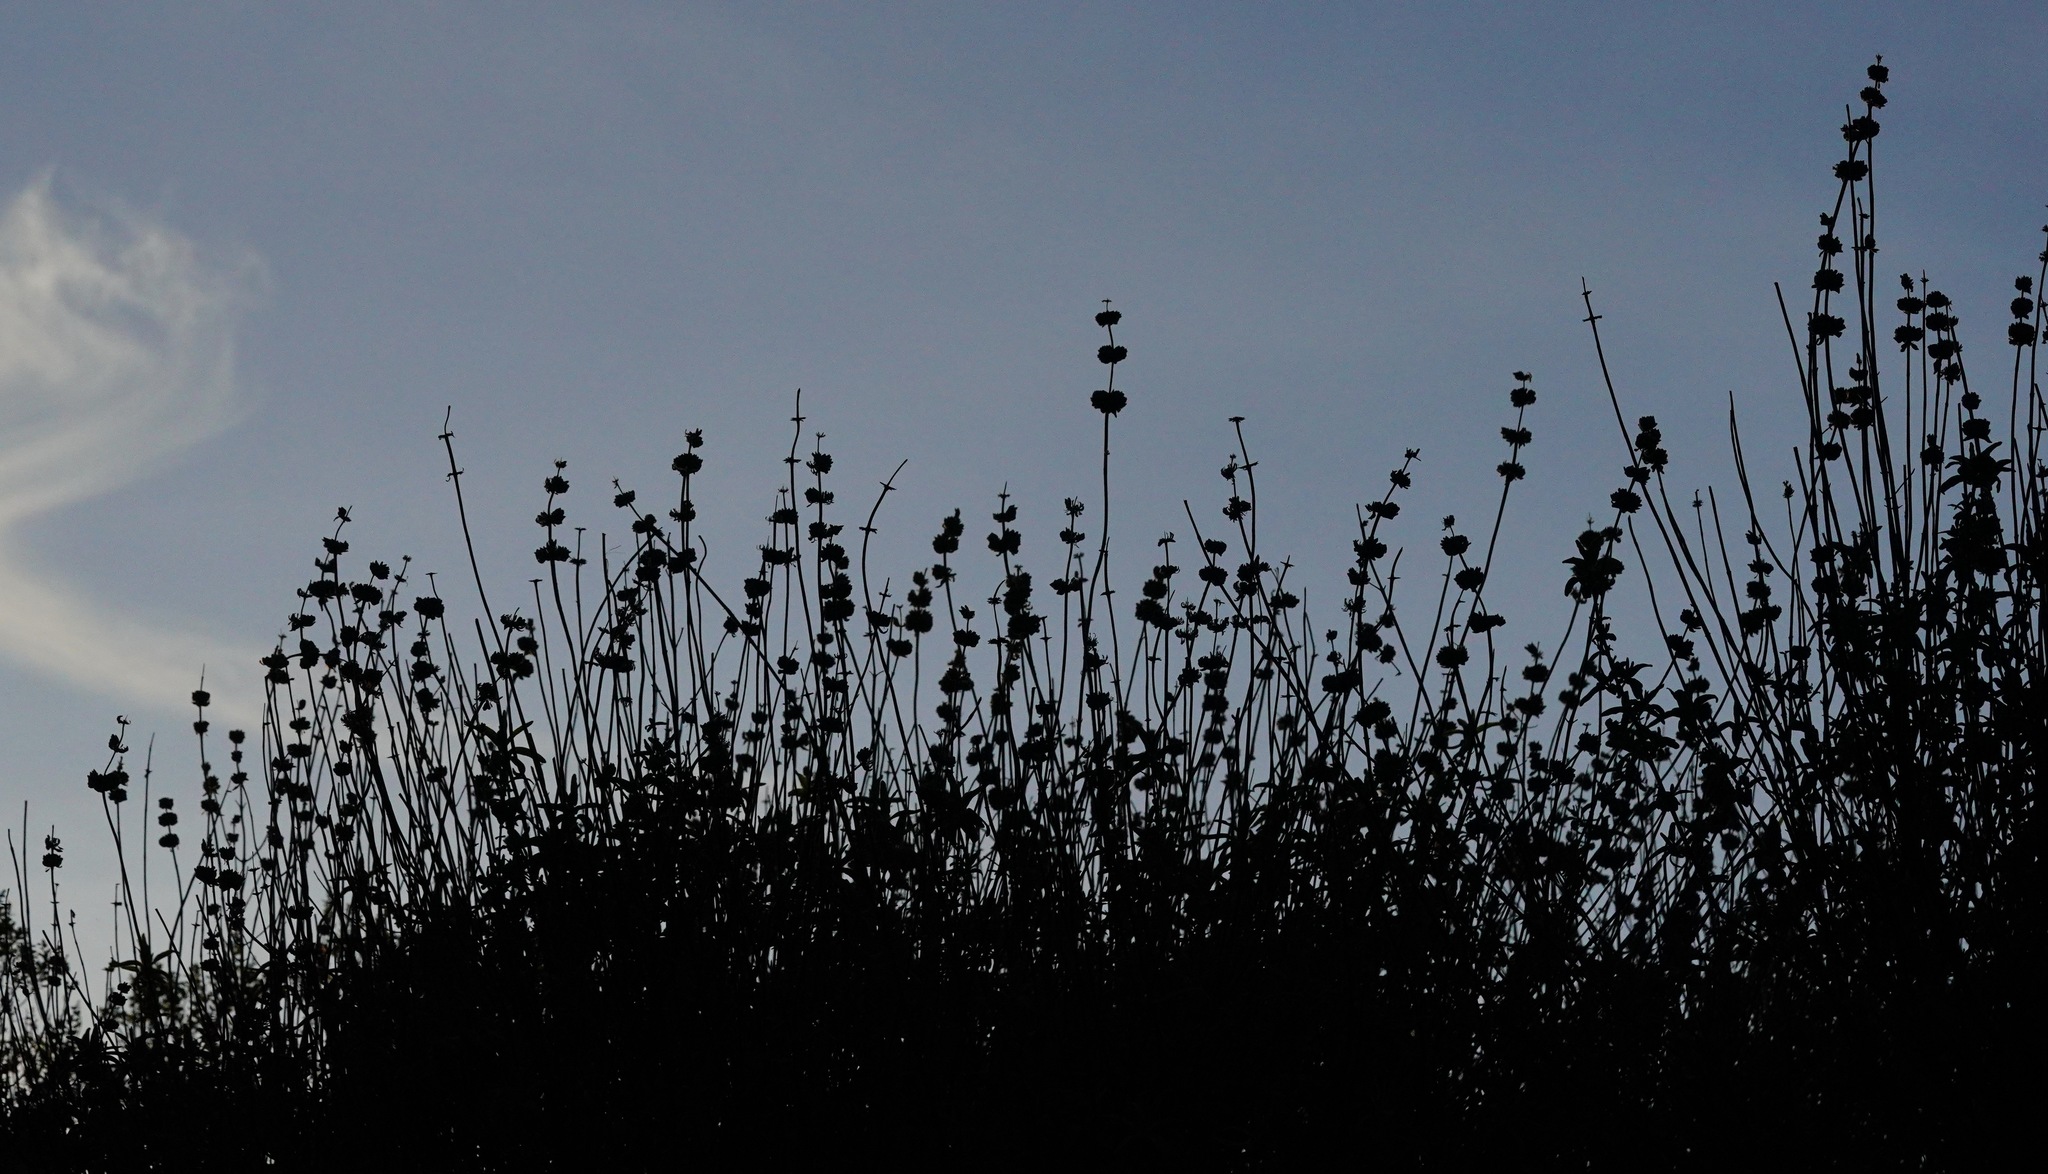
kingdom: Plantae
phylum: Tracheophyta
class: Magnoliopsida
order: Lamiales
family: Lamiaceae
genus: Salvia
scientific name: Salvia mellifera
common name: Black sage
